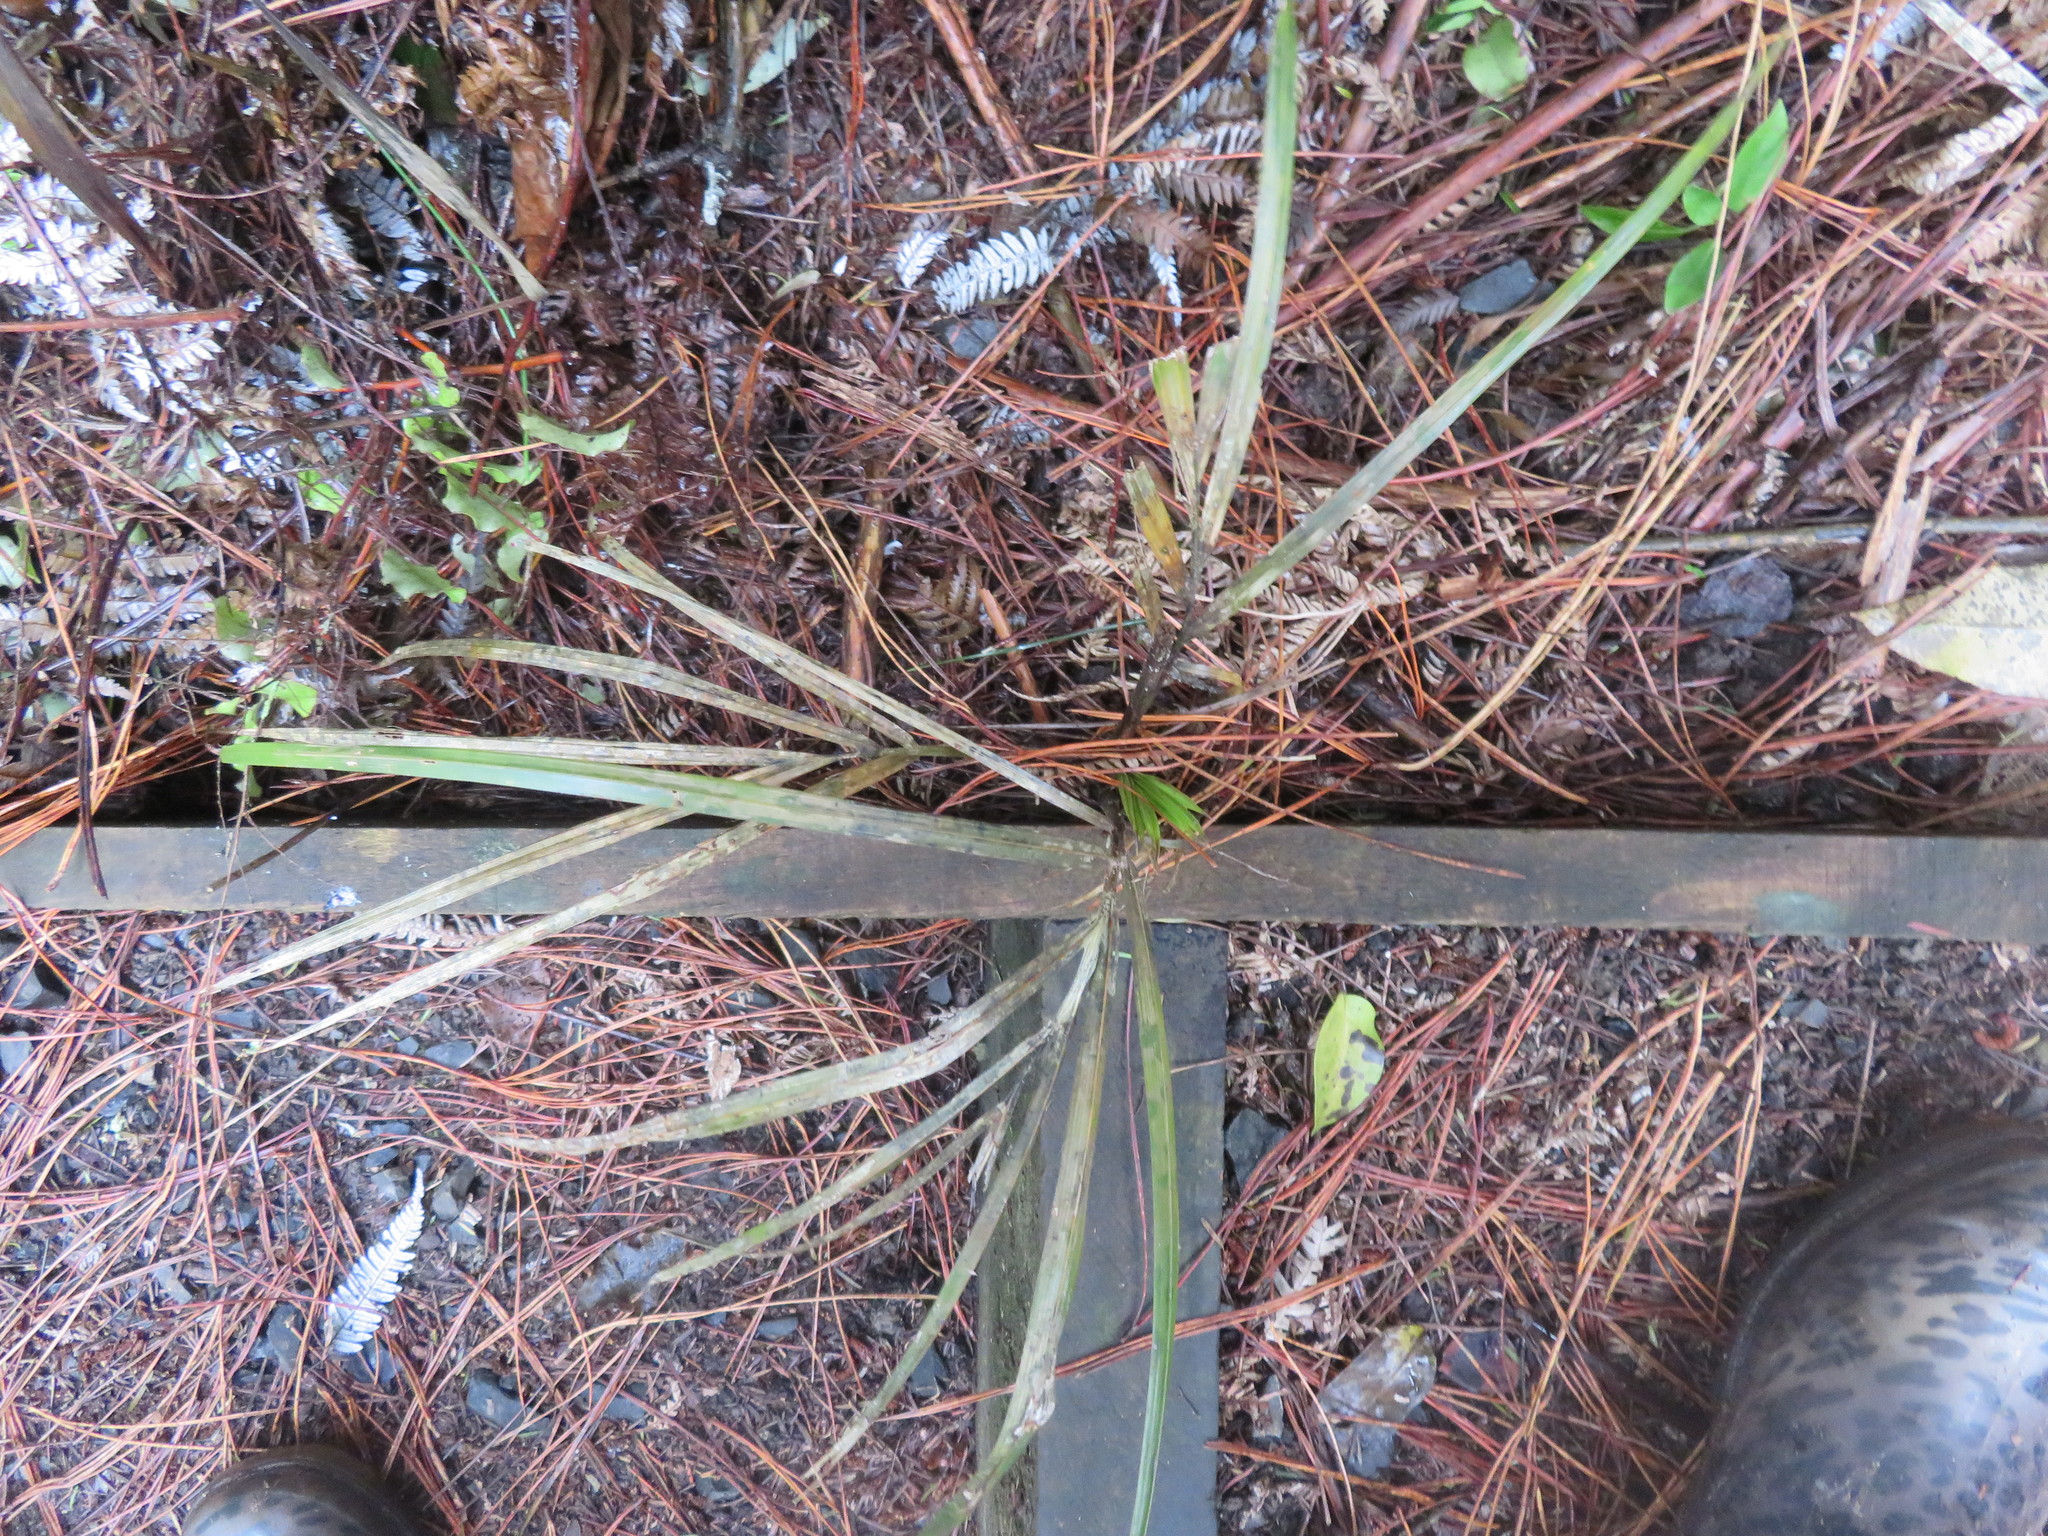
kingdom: Plantae
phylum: Tracheophyta
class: Liliopsida
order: Arecales
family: Arecaceae
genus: Rhopalostylis
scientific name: Rhopalostylis sapida
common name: Feather-duster palm
